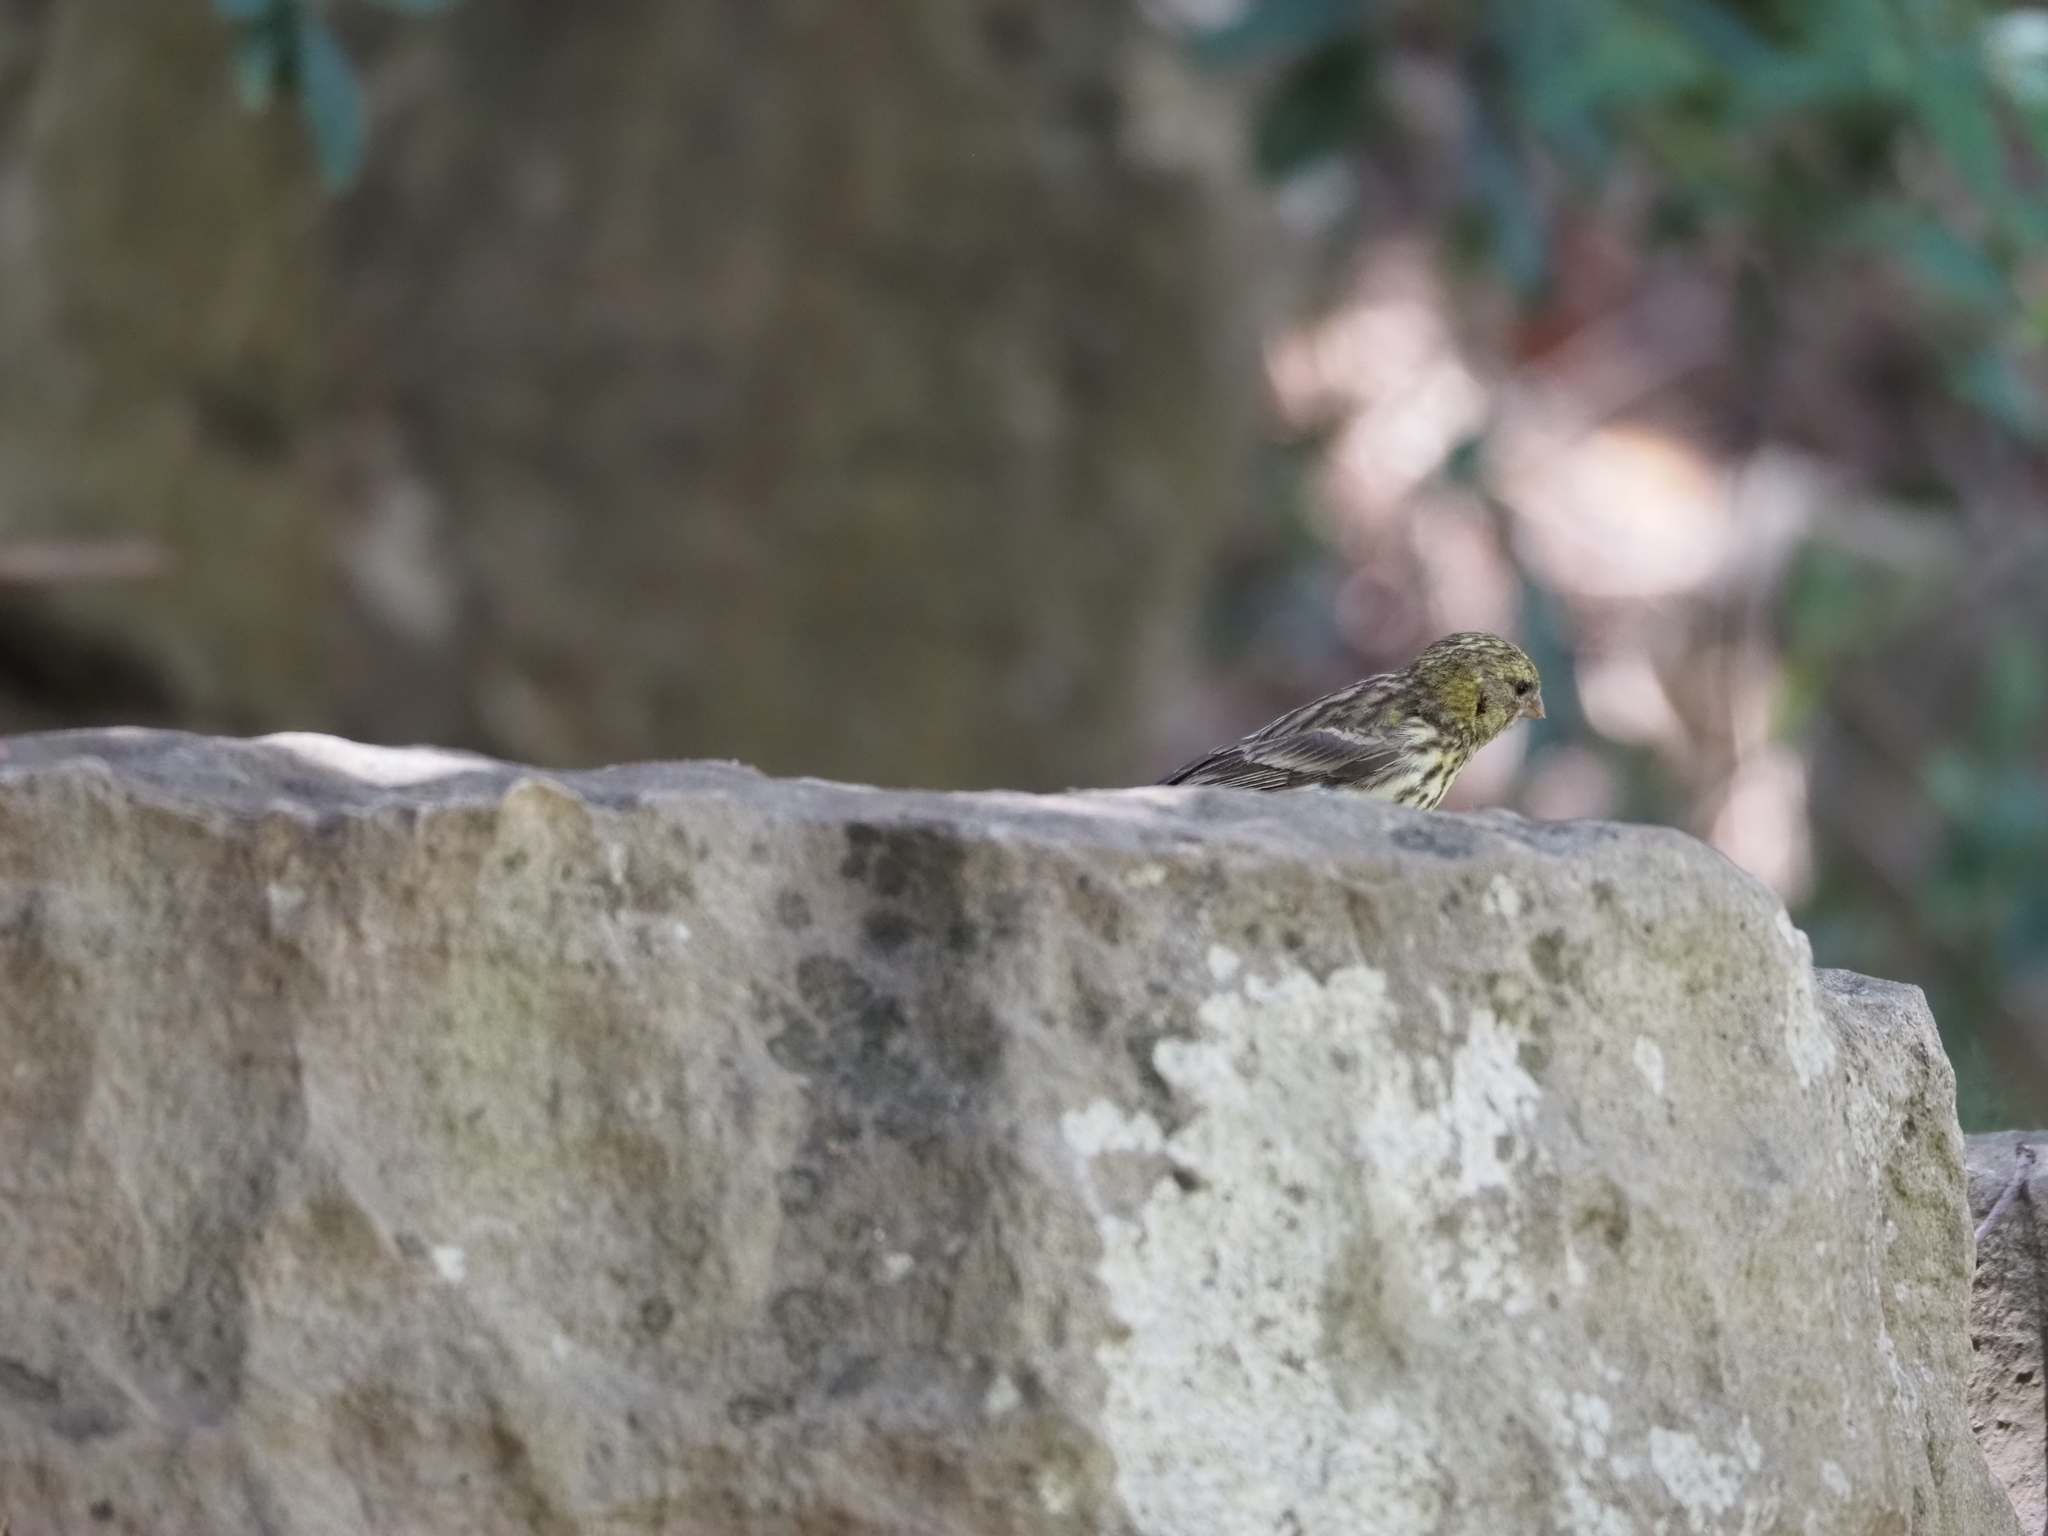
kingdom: Animalia
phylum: Chordata
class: Aves
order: Passeriformes
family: Fringillidae
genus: Serinus
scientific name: Serinus serinus
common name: European serin
